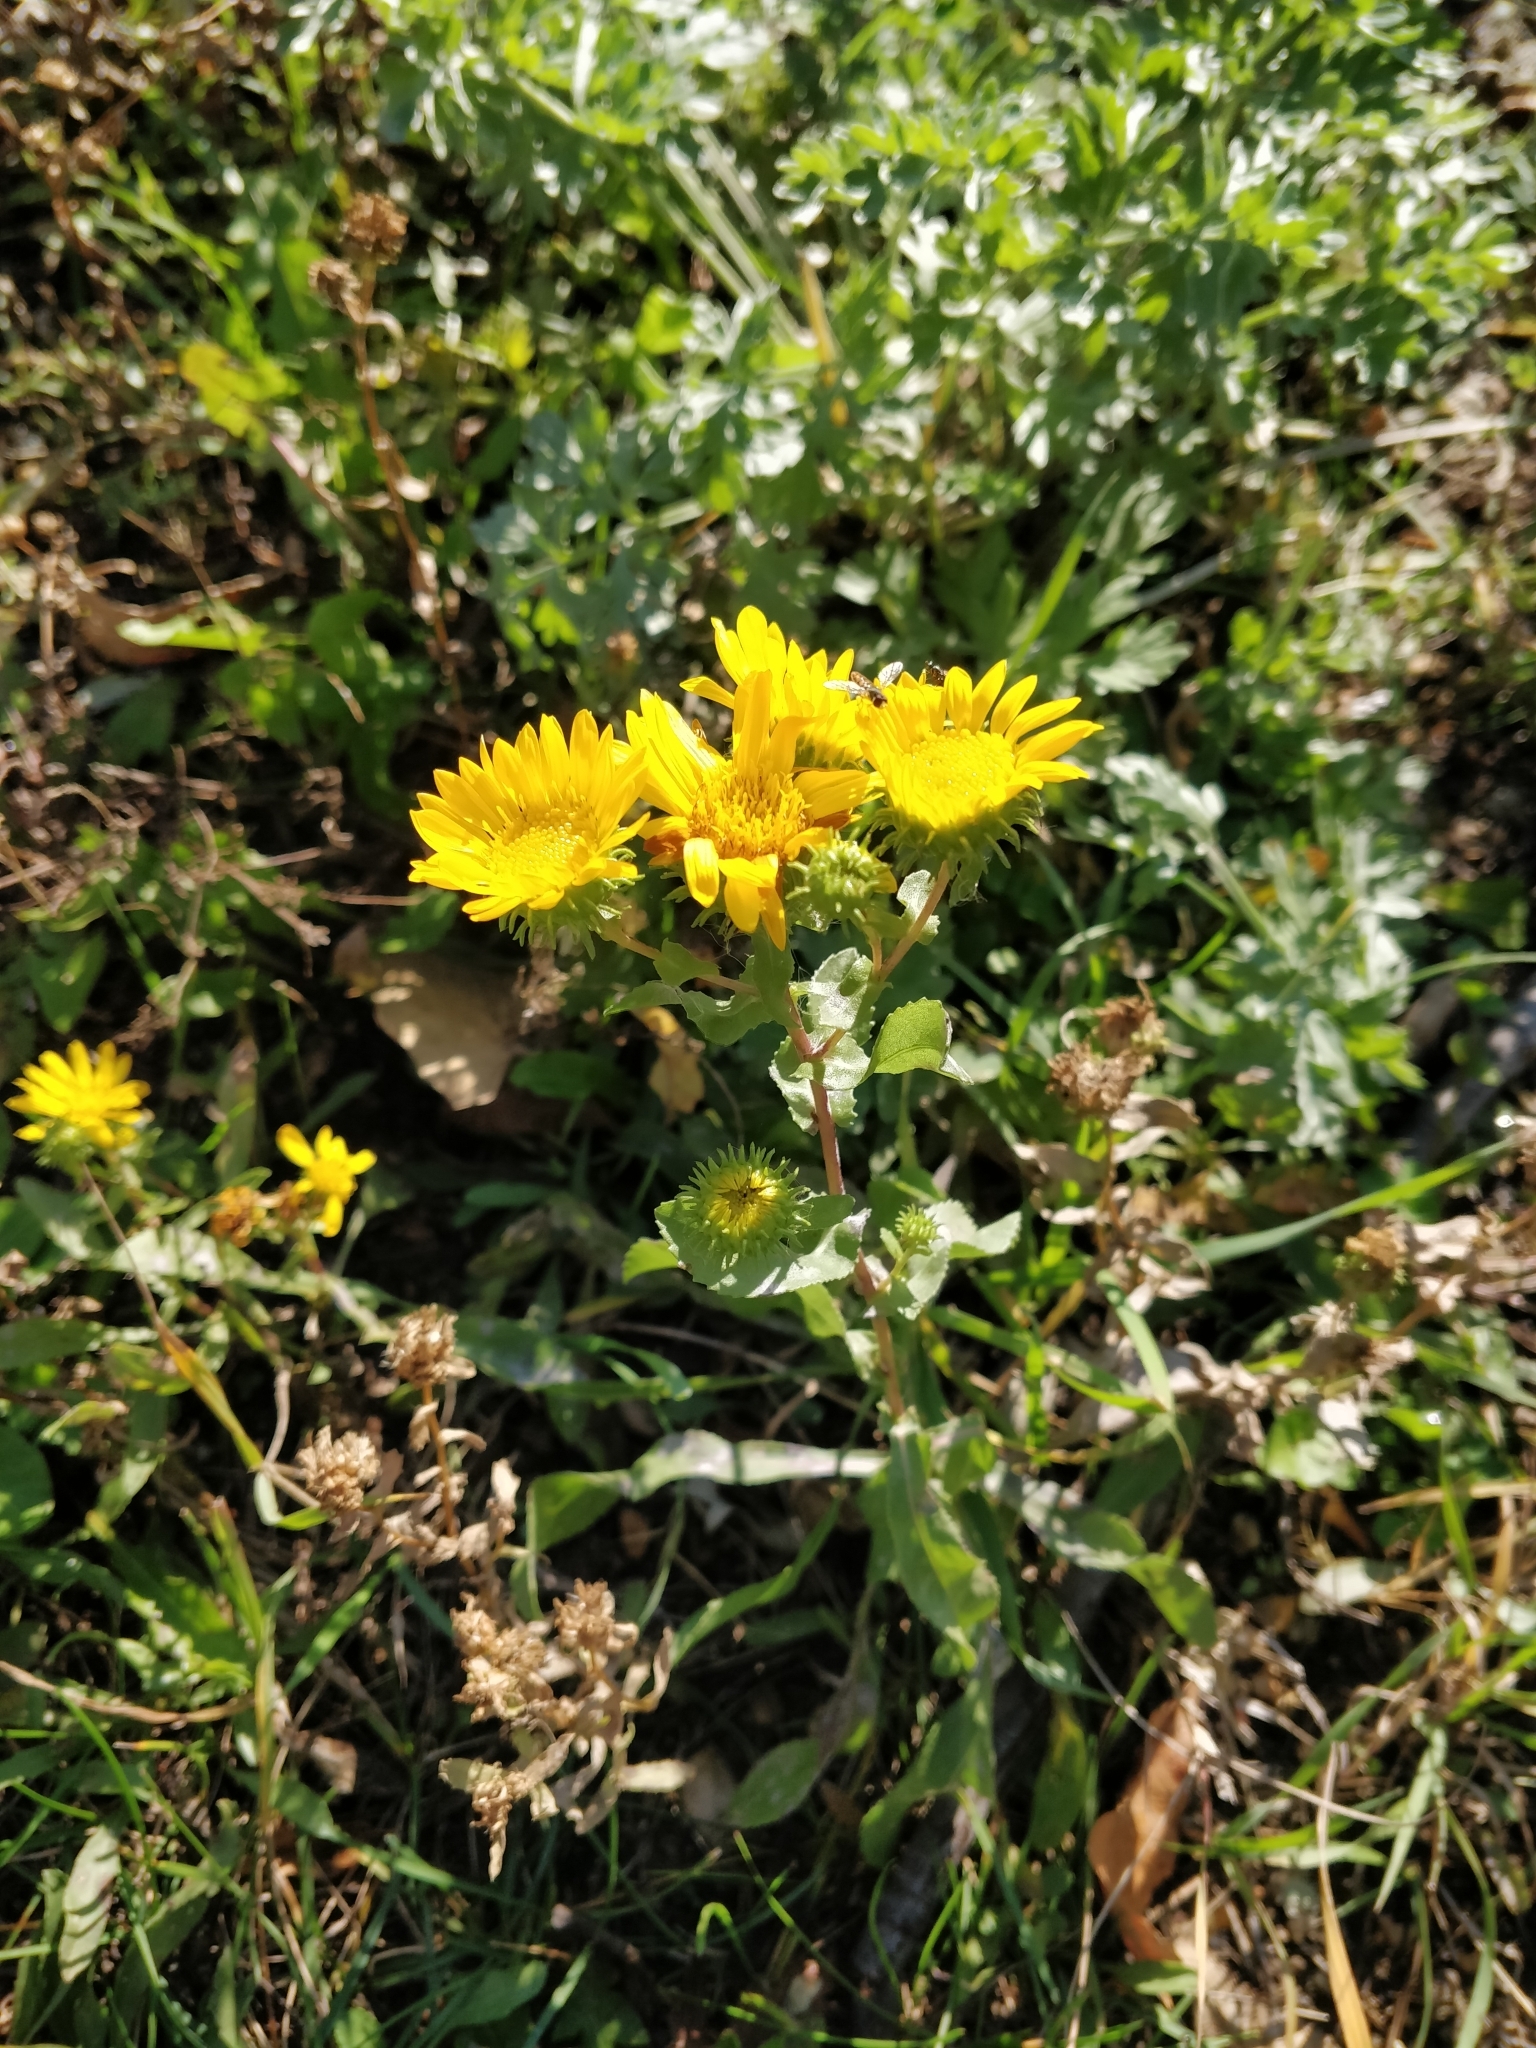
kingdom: Plantae
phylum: Tracheophyta
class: Magnoliopsida
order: Asterales
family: Asteraceae
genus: Grindelia
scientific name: Grindelia squarrosa
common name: Curly-cup gumweed
